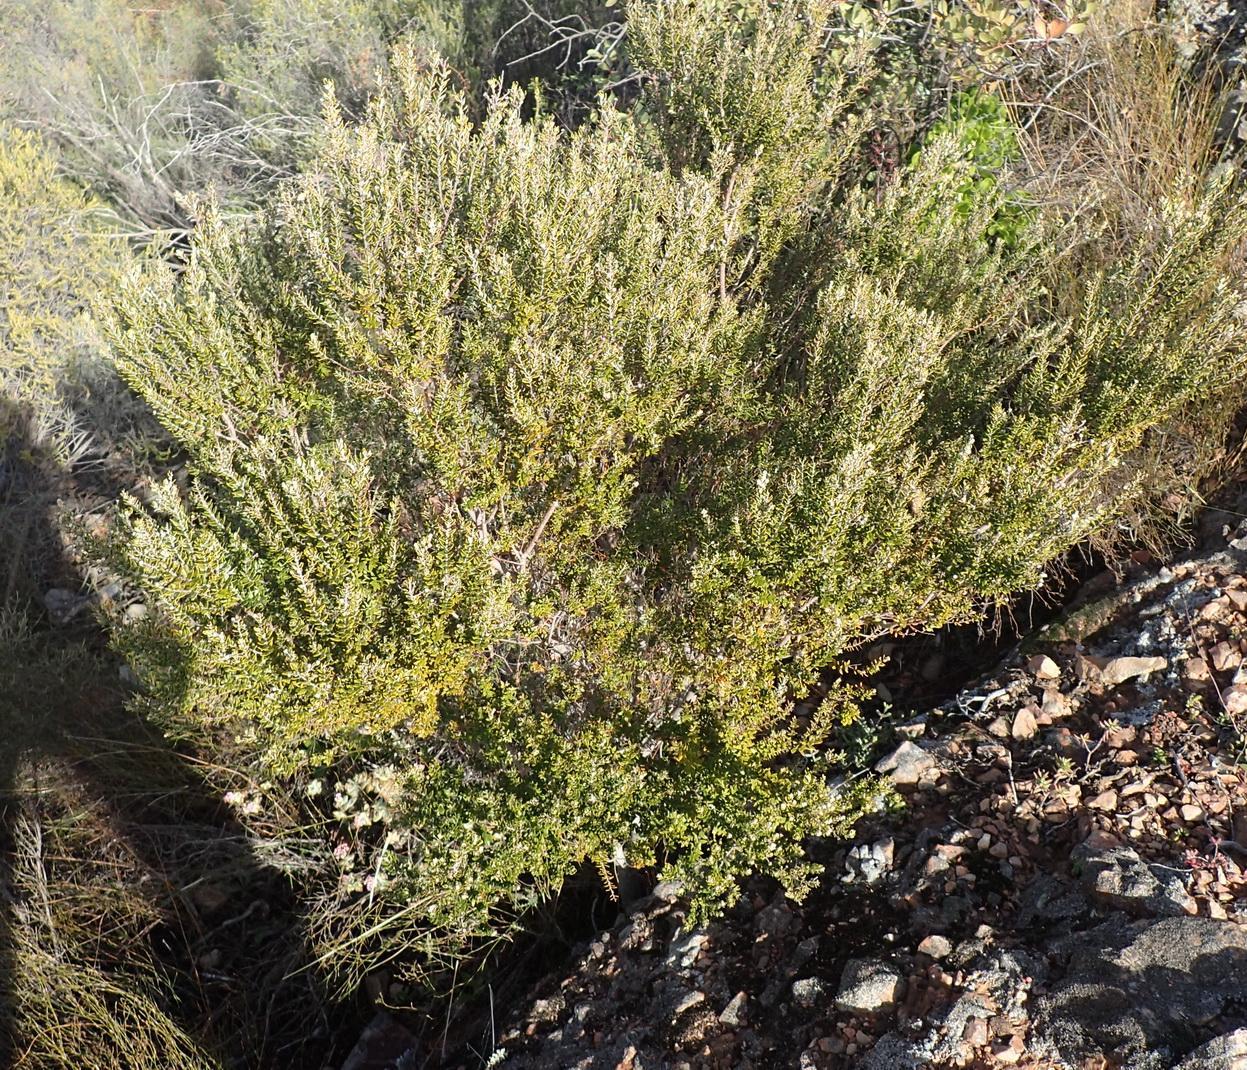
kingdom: Plantae
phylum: Tracheophyta
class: Magnoliopsida
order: Rosales
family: Rhamnaceae
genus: Phylica
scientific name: Phylica paniculata
